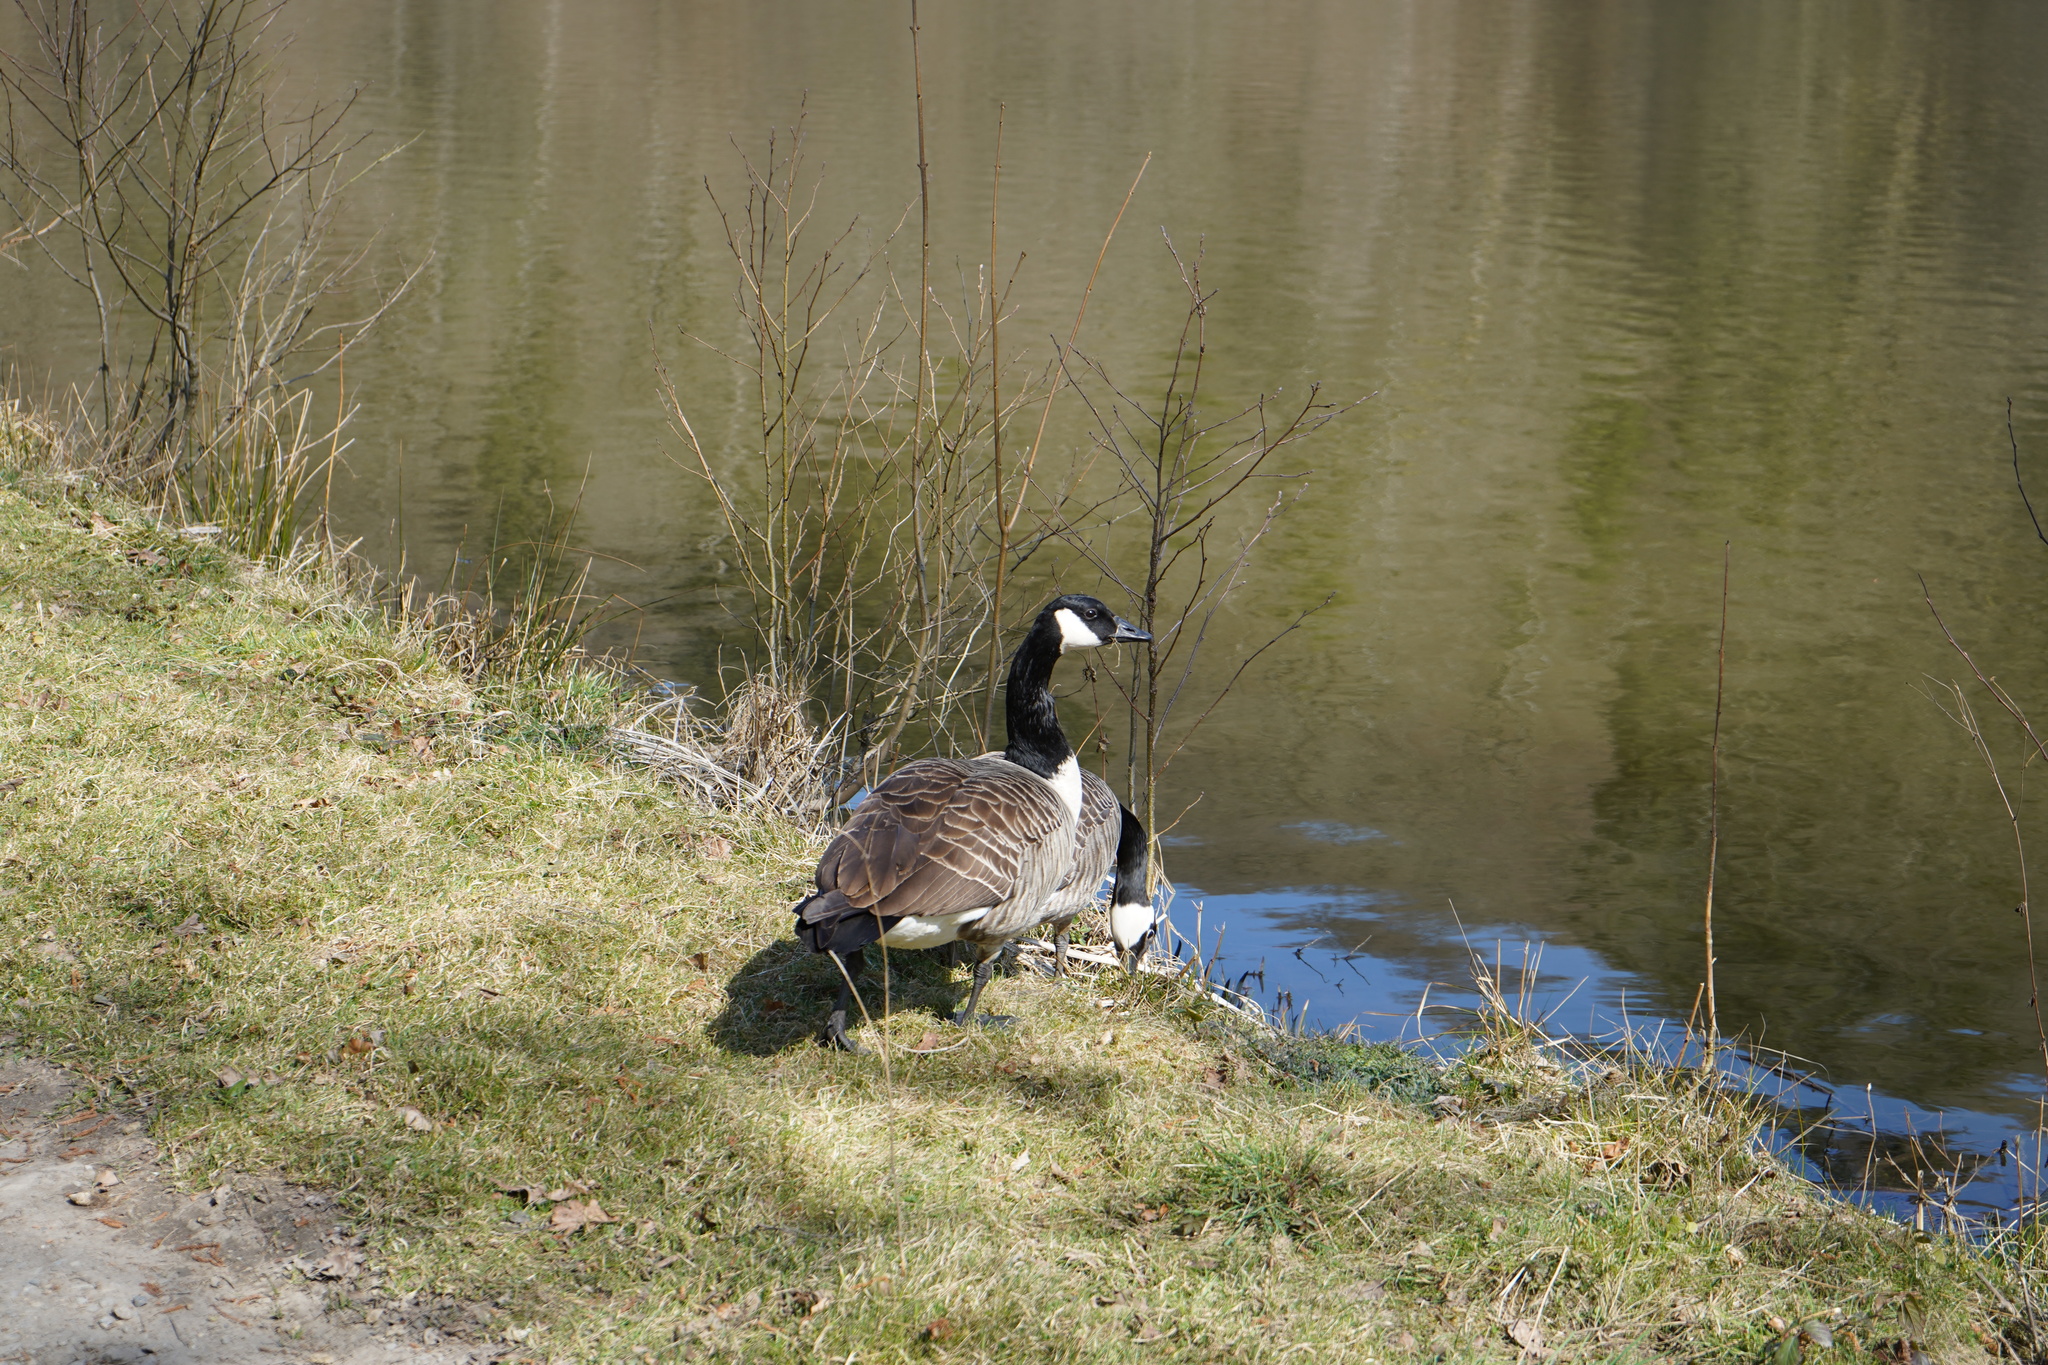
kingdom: Animalia
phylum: Chordata
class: Aves
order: Anseriformes
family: Anatidae
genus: Branta
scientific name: Branta canadensis
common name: Canada goose
